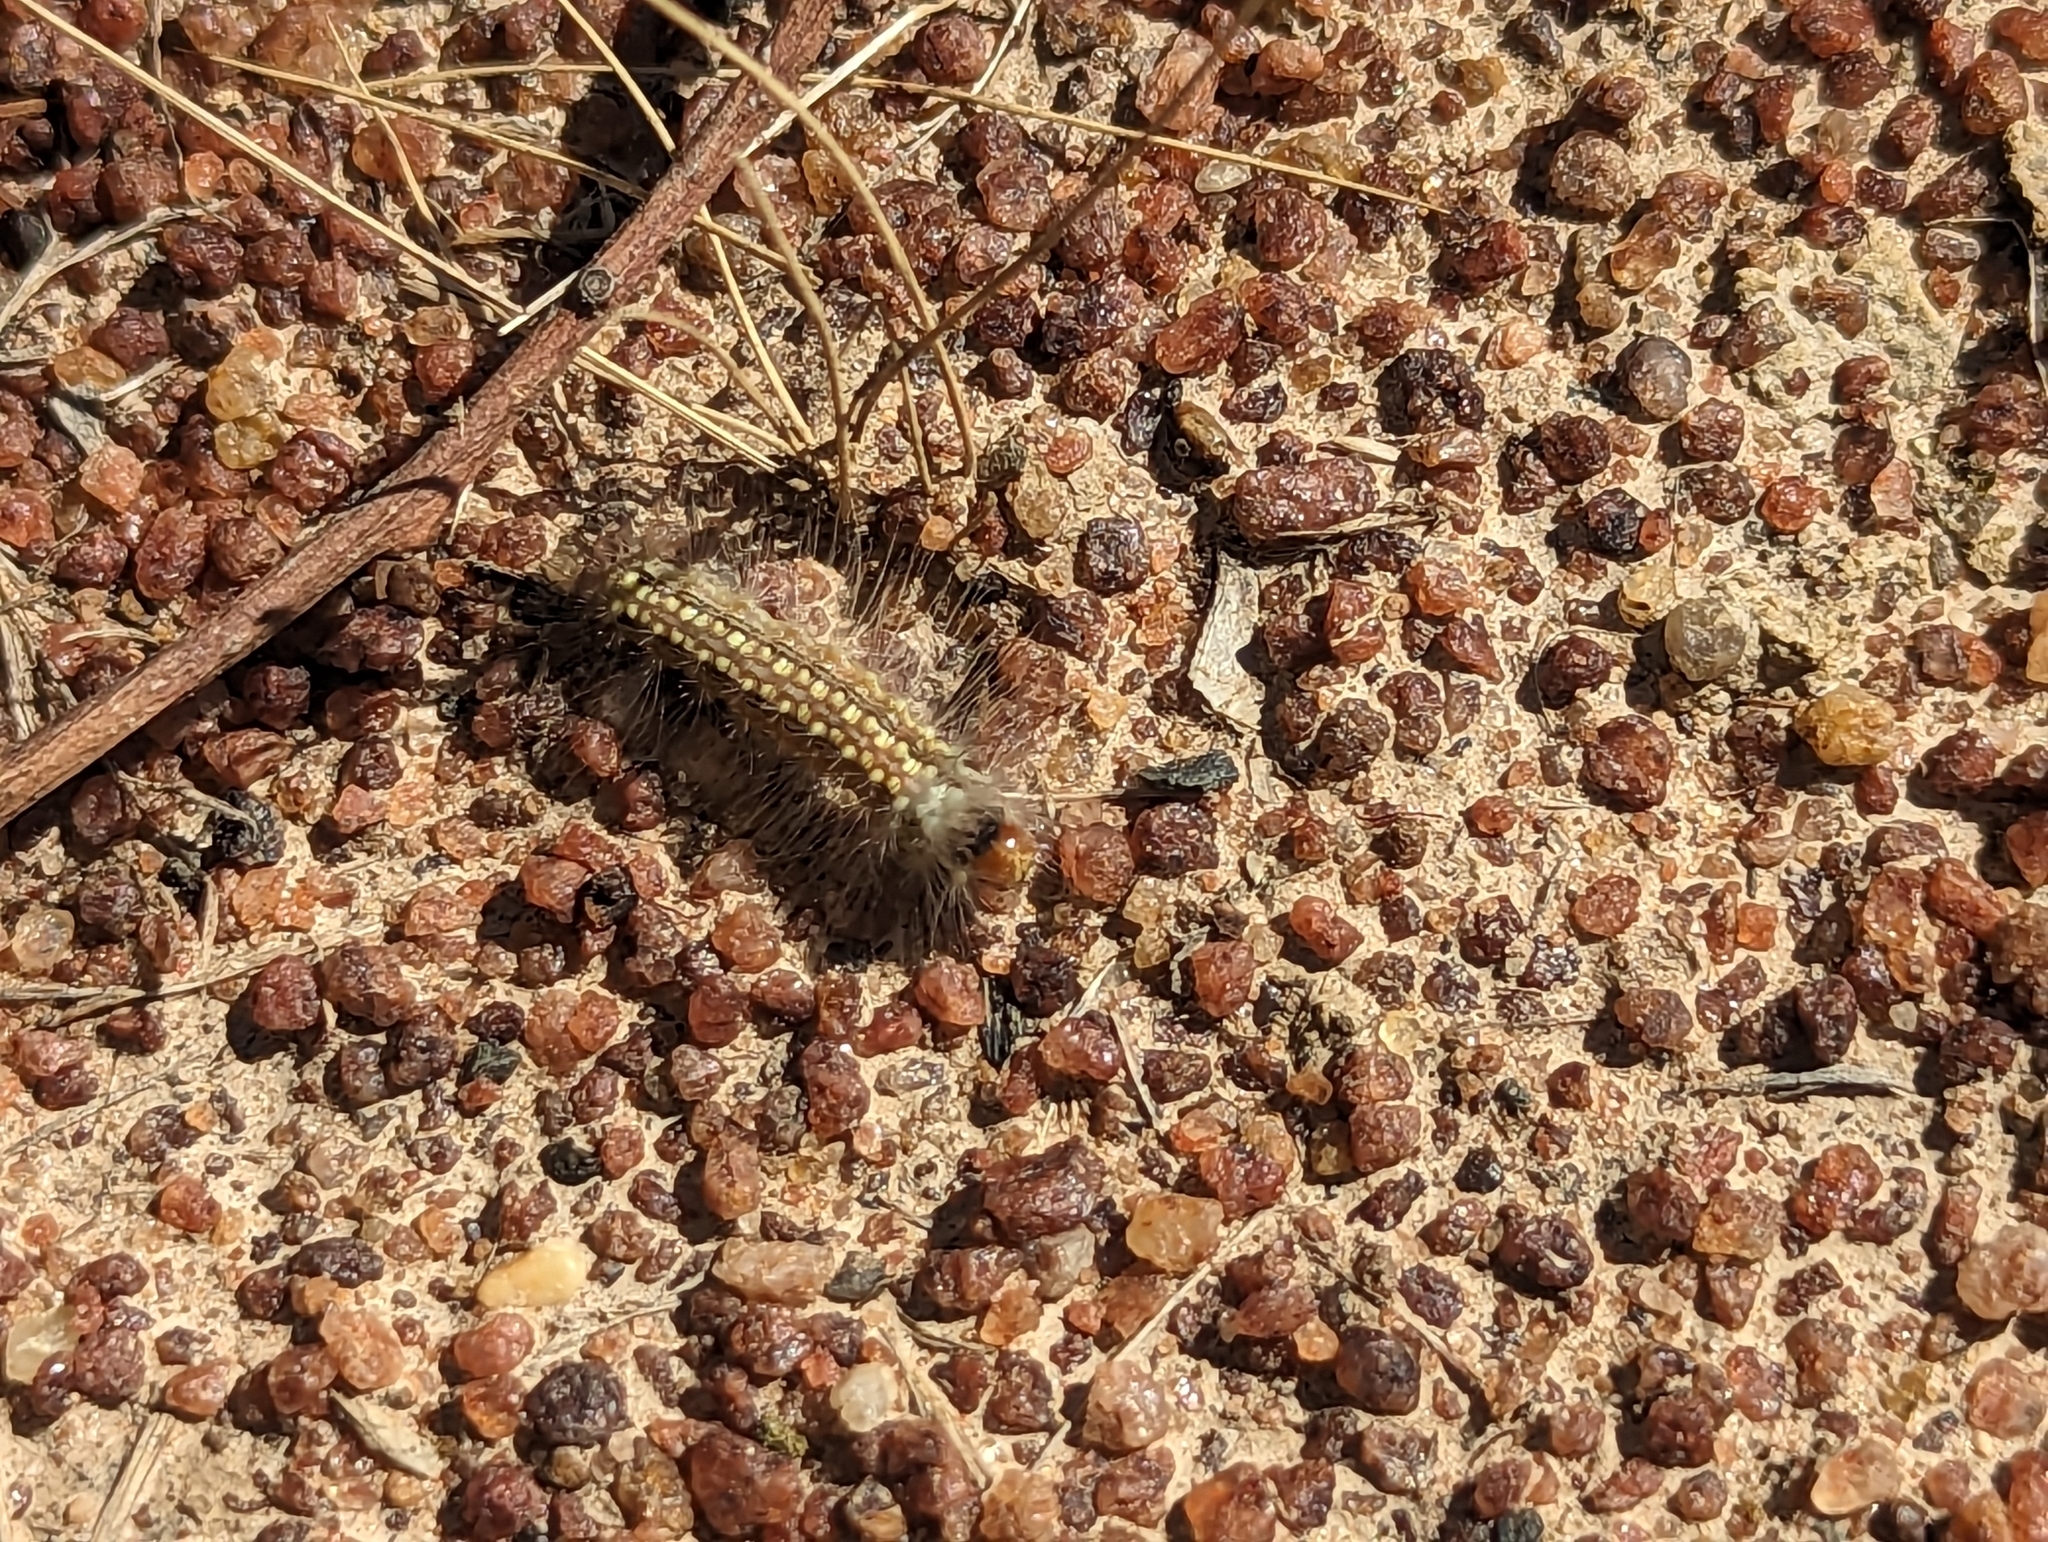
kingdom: Animalia
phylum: Arthropoda
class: Insecta
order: Lepidoptera
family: Nolidae
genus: Uraba
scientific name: Uraba lugens
